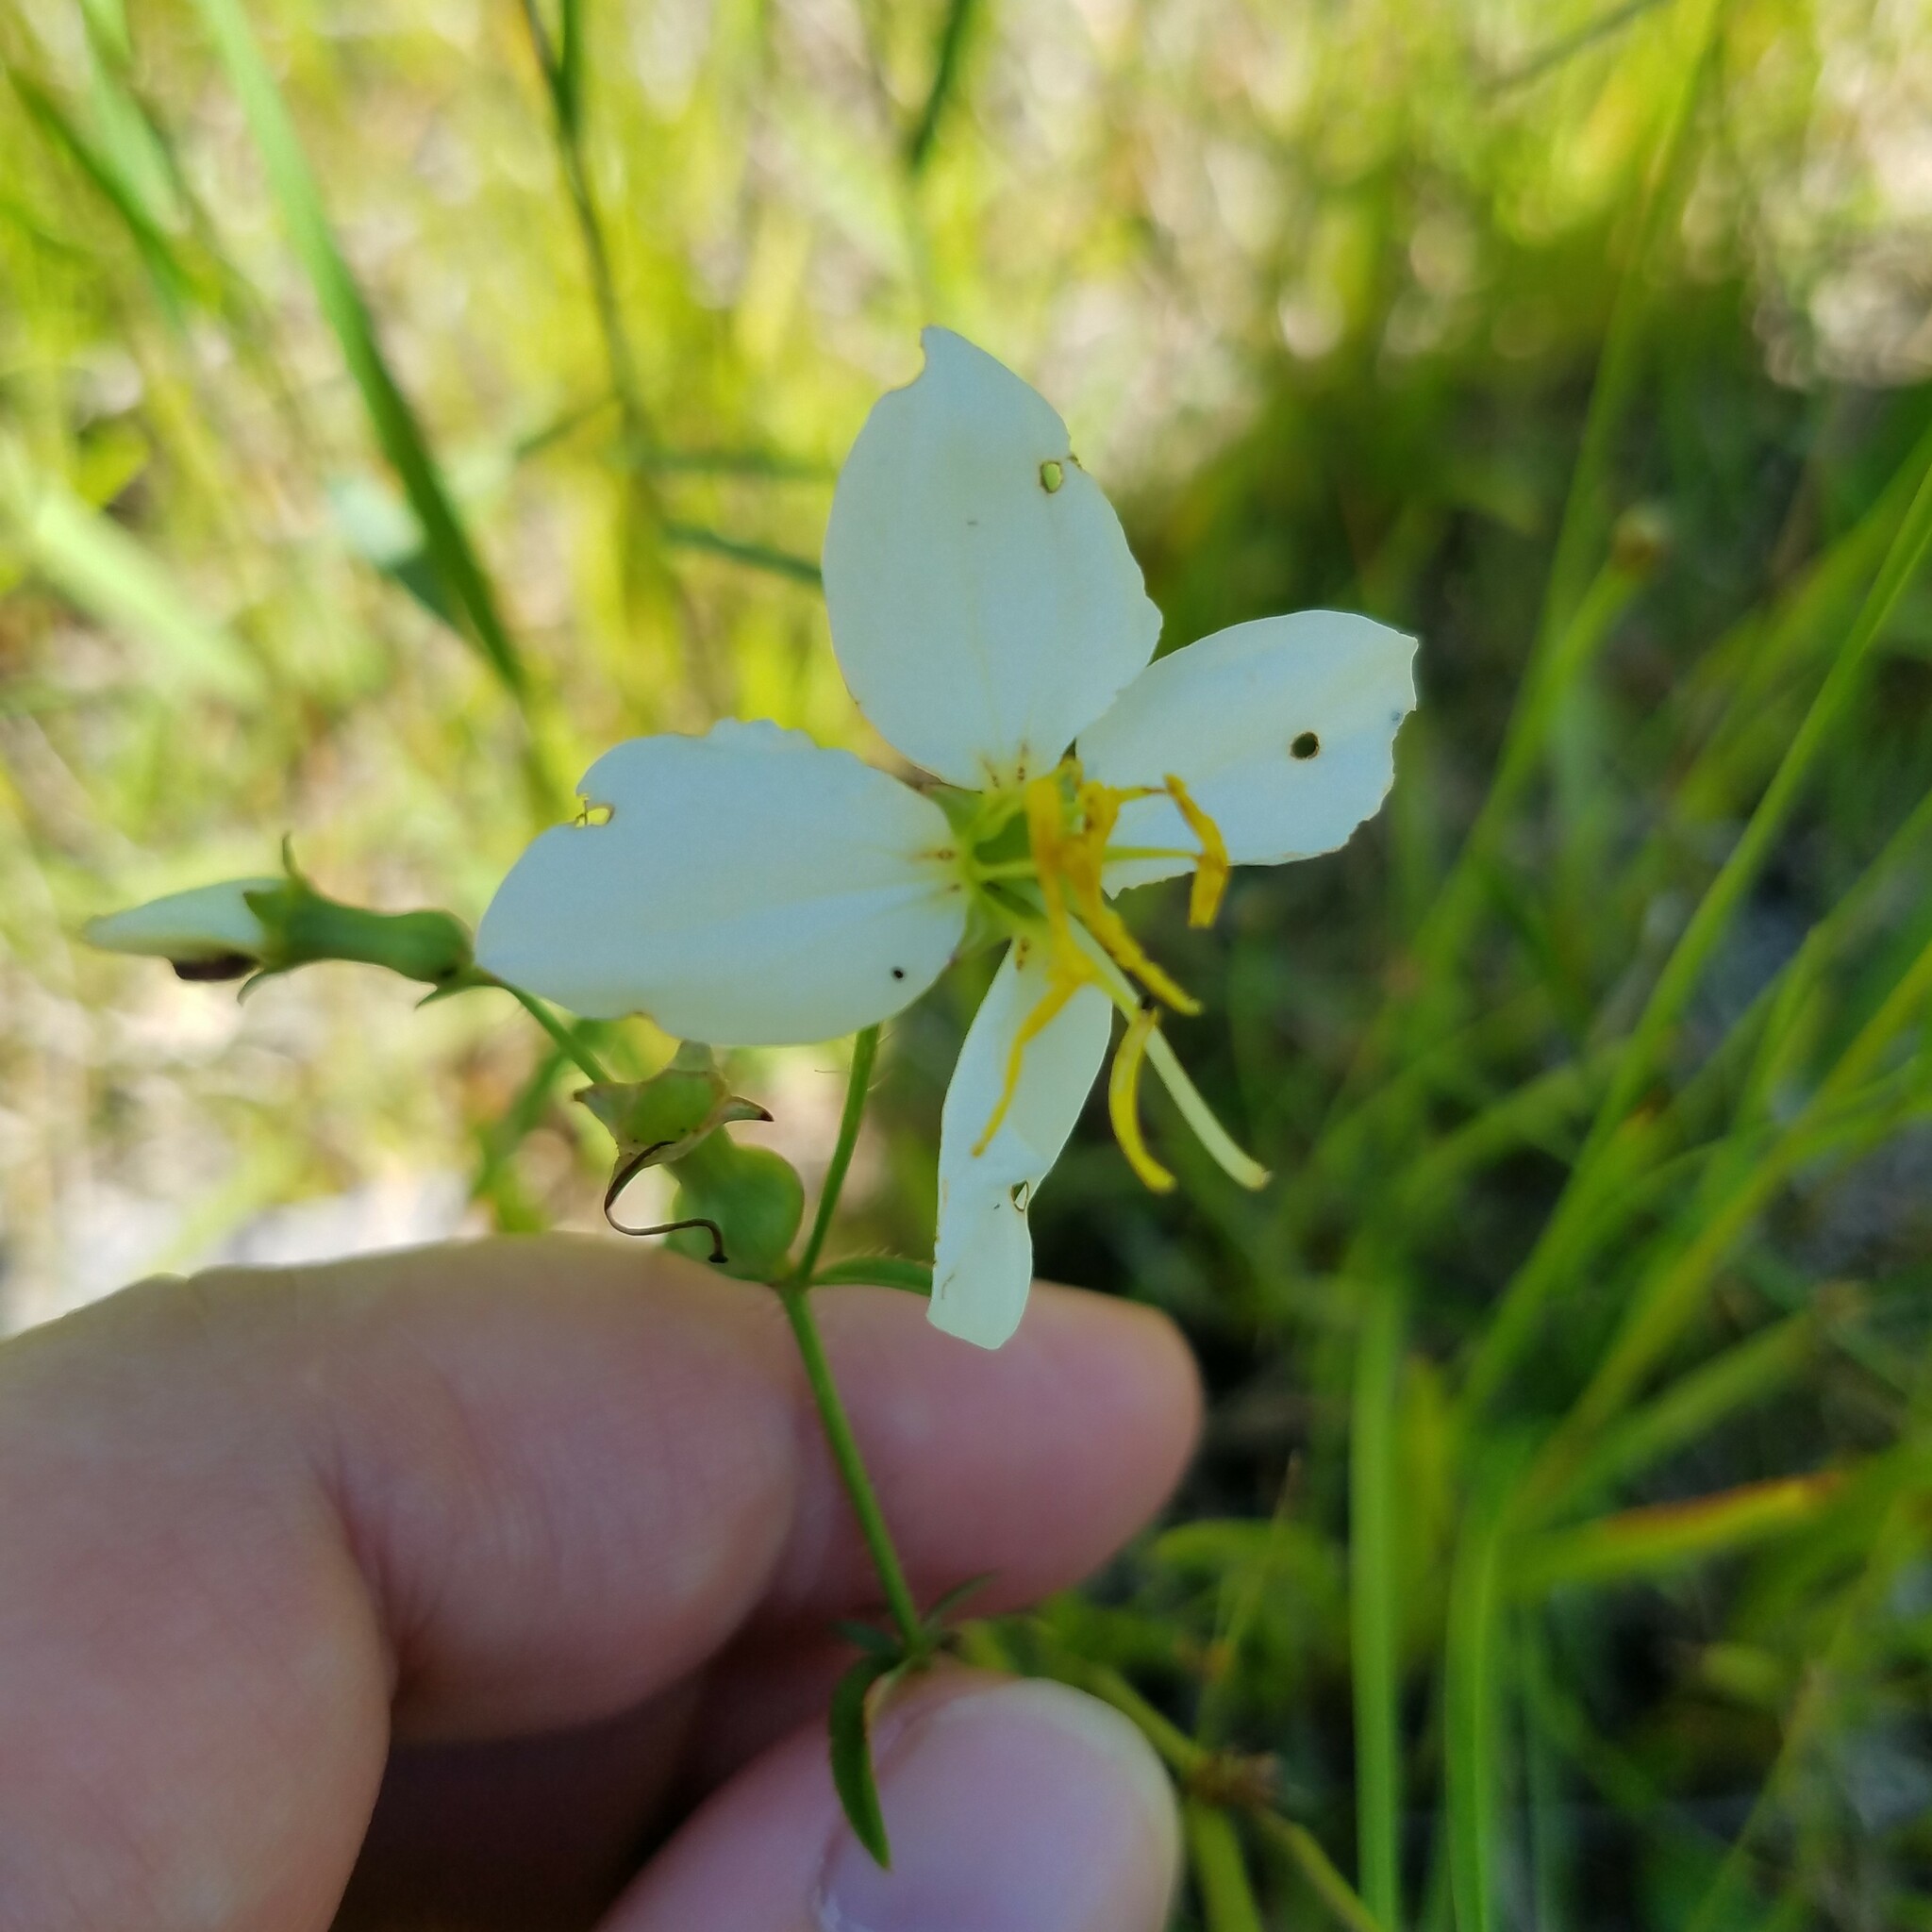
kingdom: Plantae
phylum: Tracheophyta
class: Magnoliopsida
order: Myrtales
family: Melastomataceae
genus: Rhexia
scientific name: Rhexia mariana
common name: Dull meadow-pitcher
